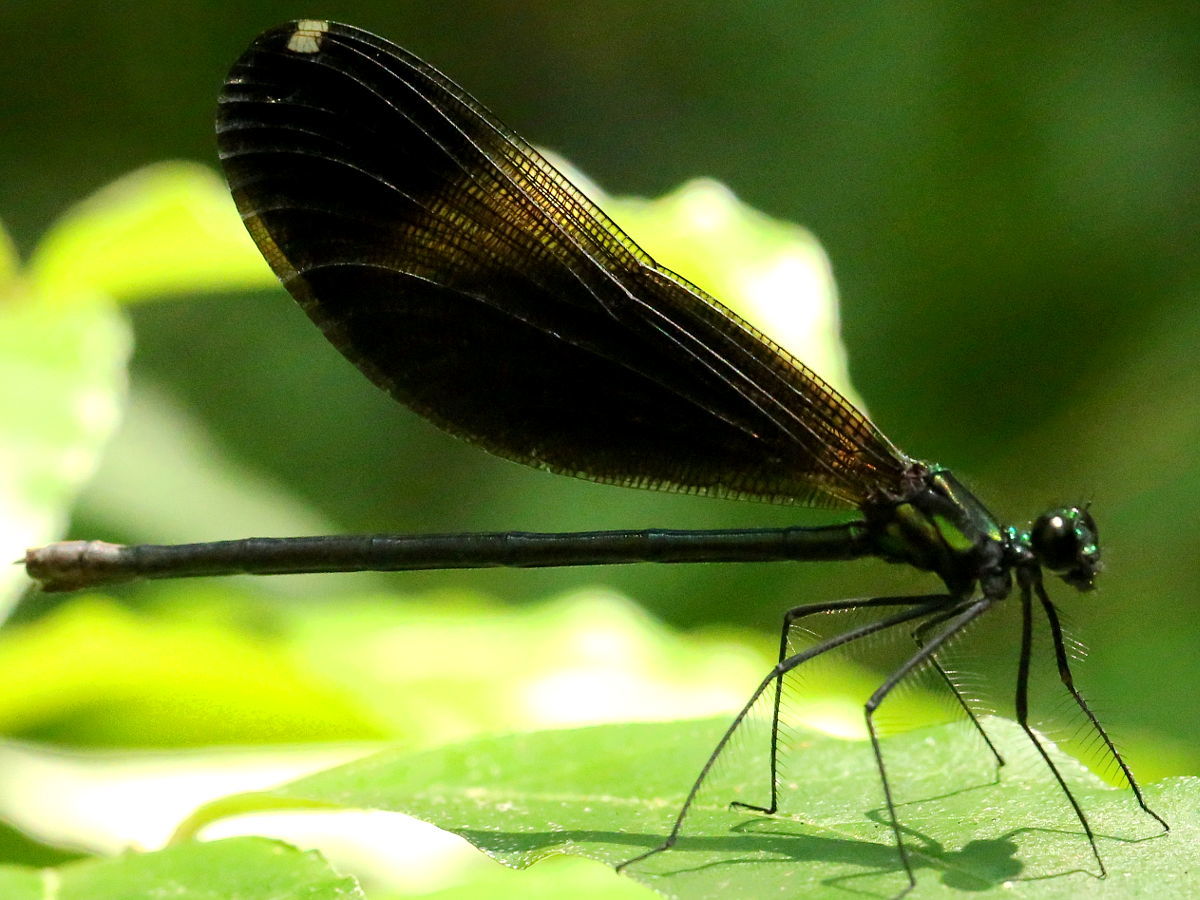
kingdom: Animalia
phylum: Arthropoda
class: Insecta
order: Odonata
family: Calopterygidae
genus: Calopteryx
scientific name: Calopteryx maculata
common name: Ebony jewelwing
